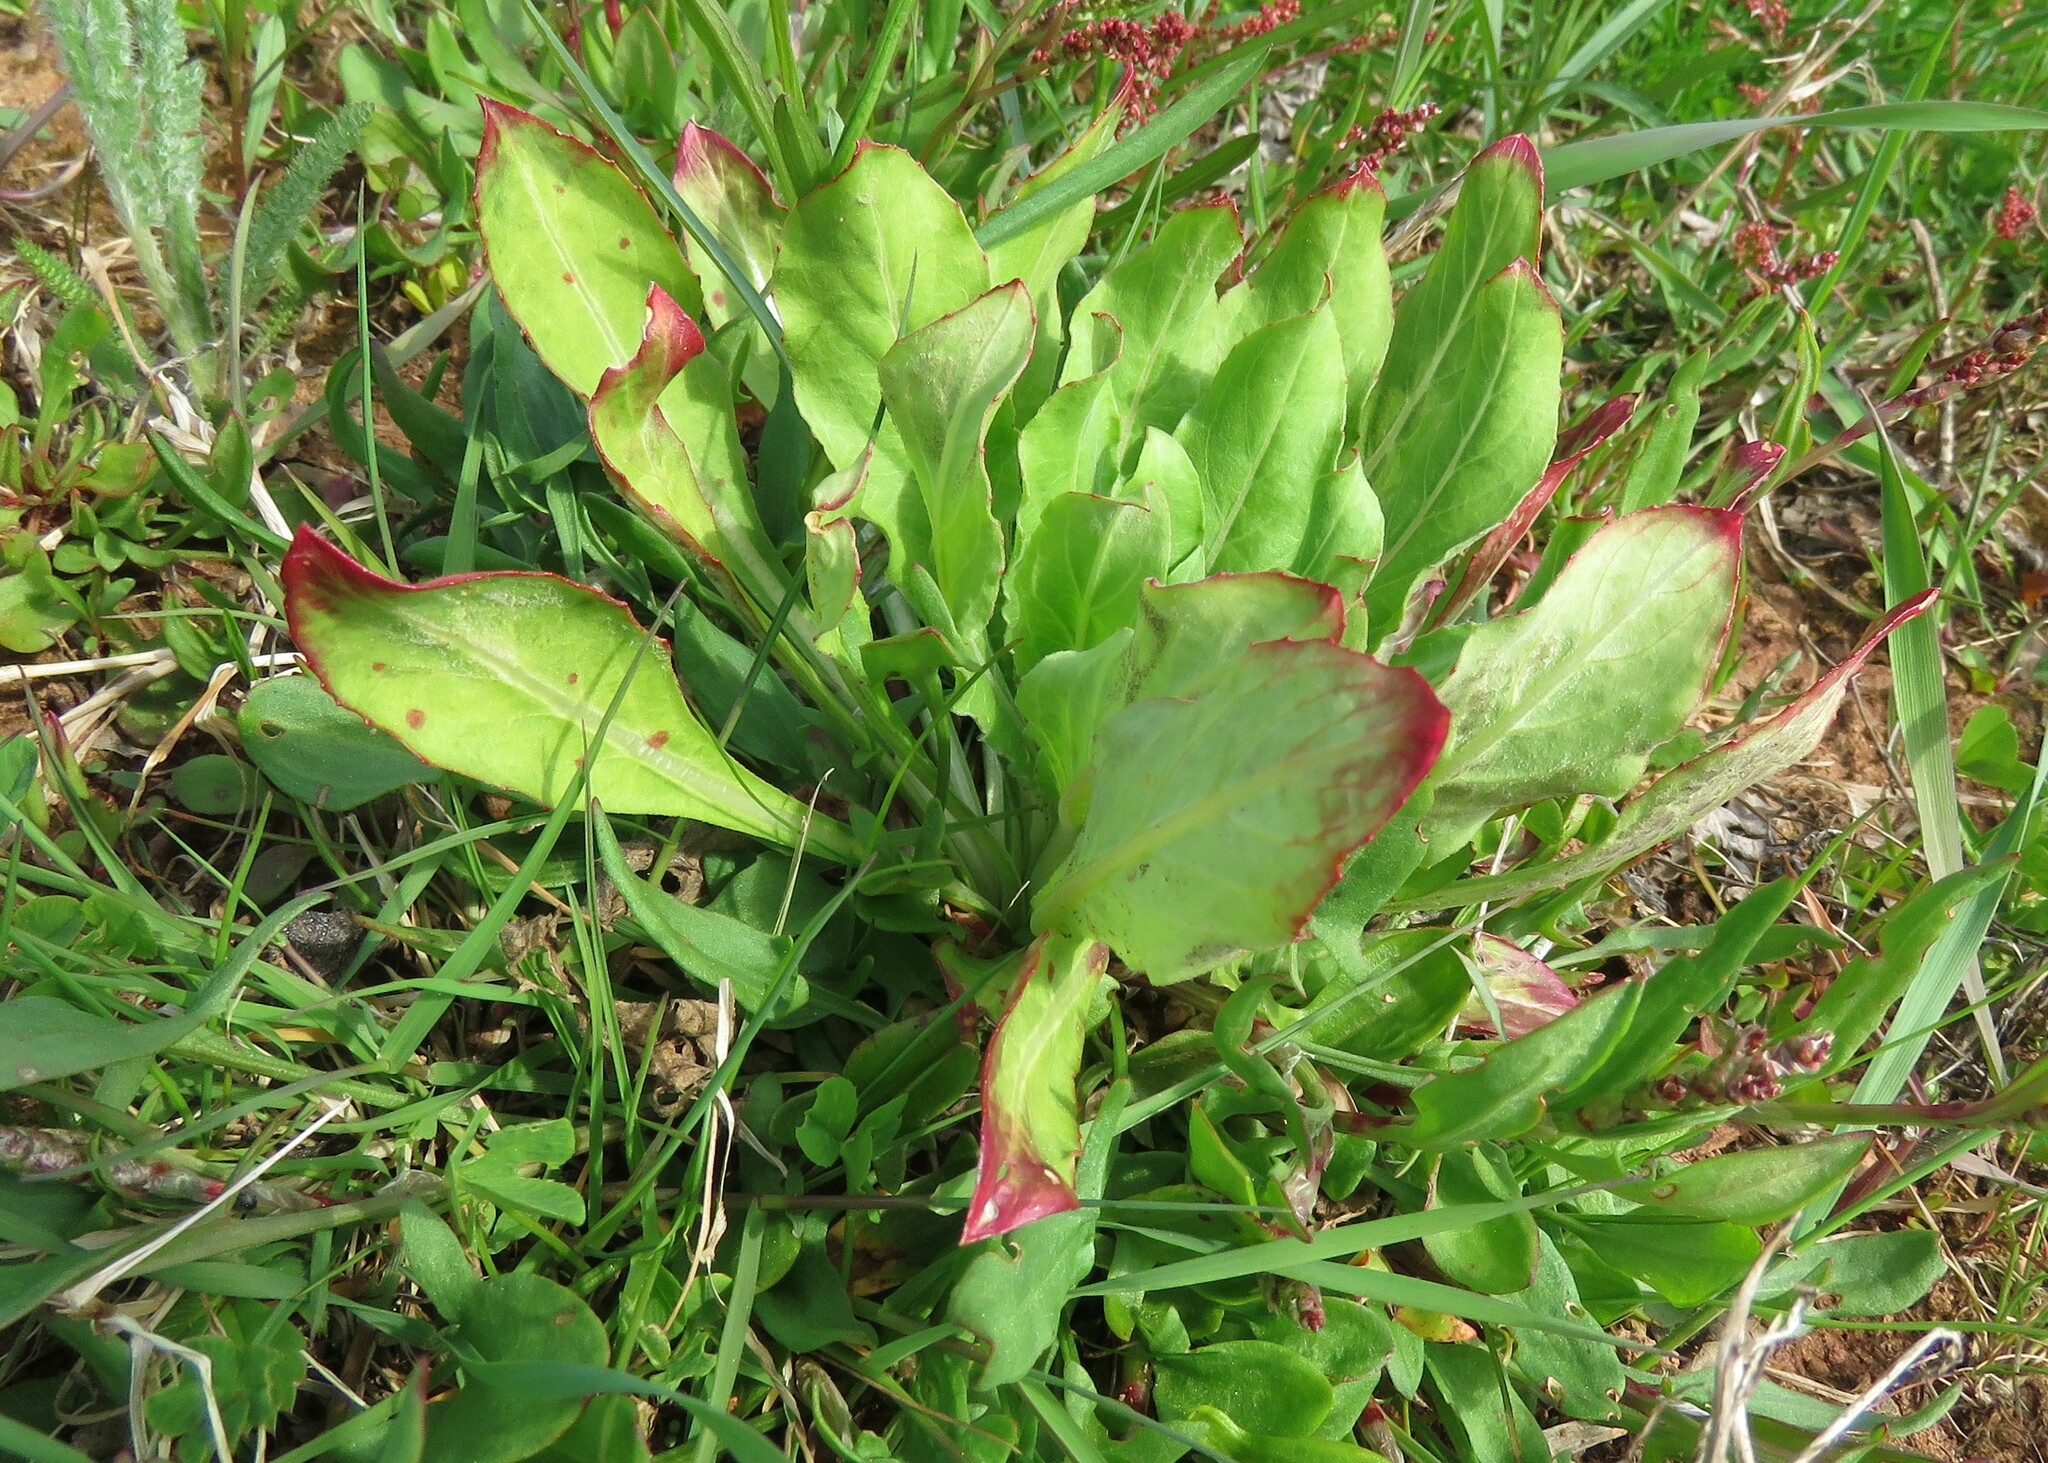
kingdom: Plantae
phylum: Tracheophyta
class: Magnoliopsida
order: Myrtales
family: Onagraceae
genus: Oenothera
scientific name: Oenothera biennis
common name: Common evening-primrose
